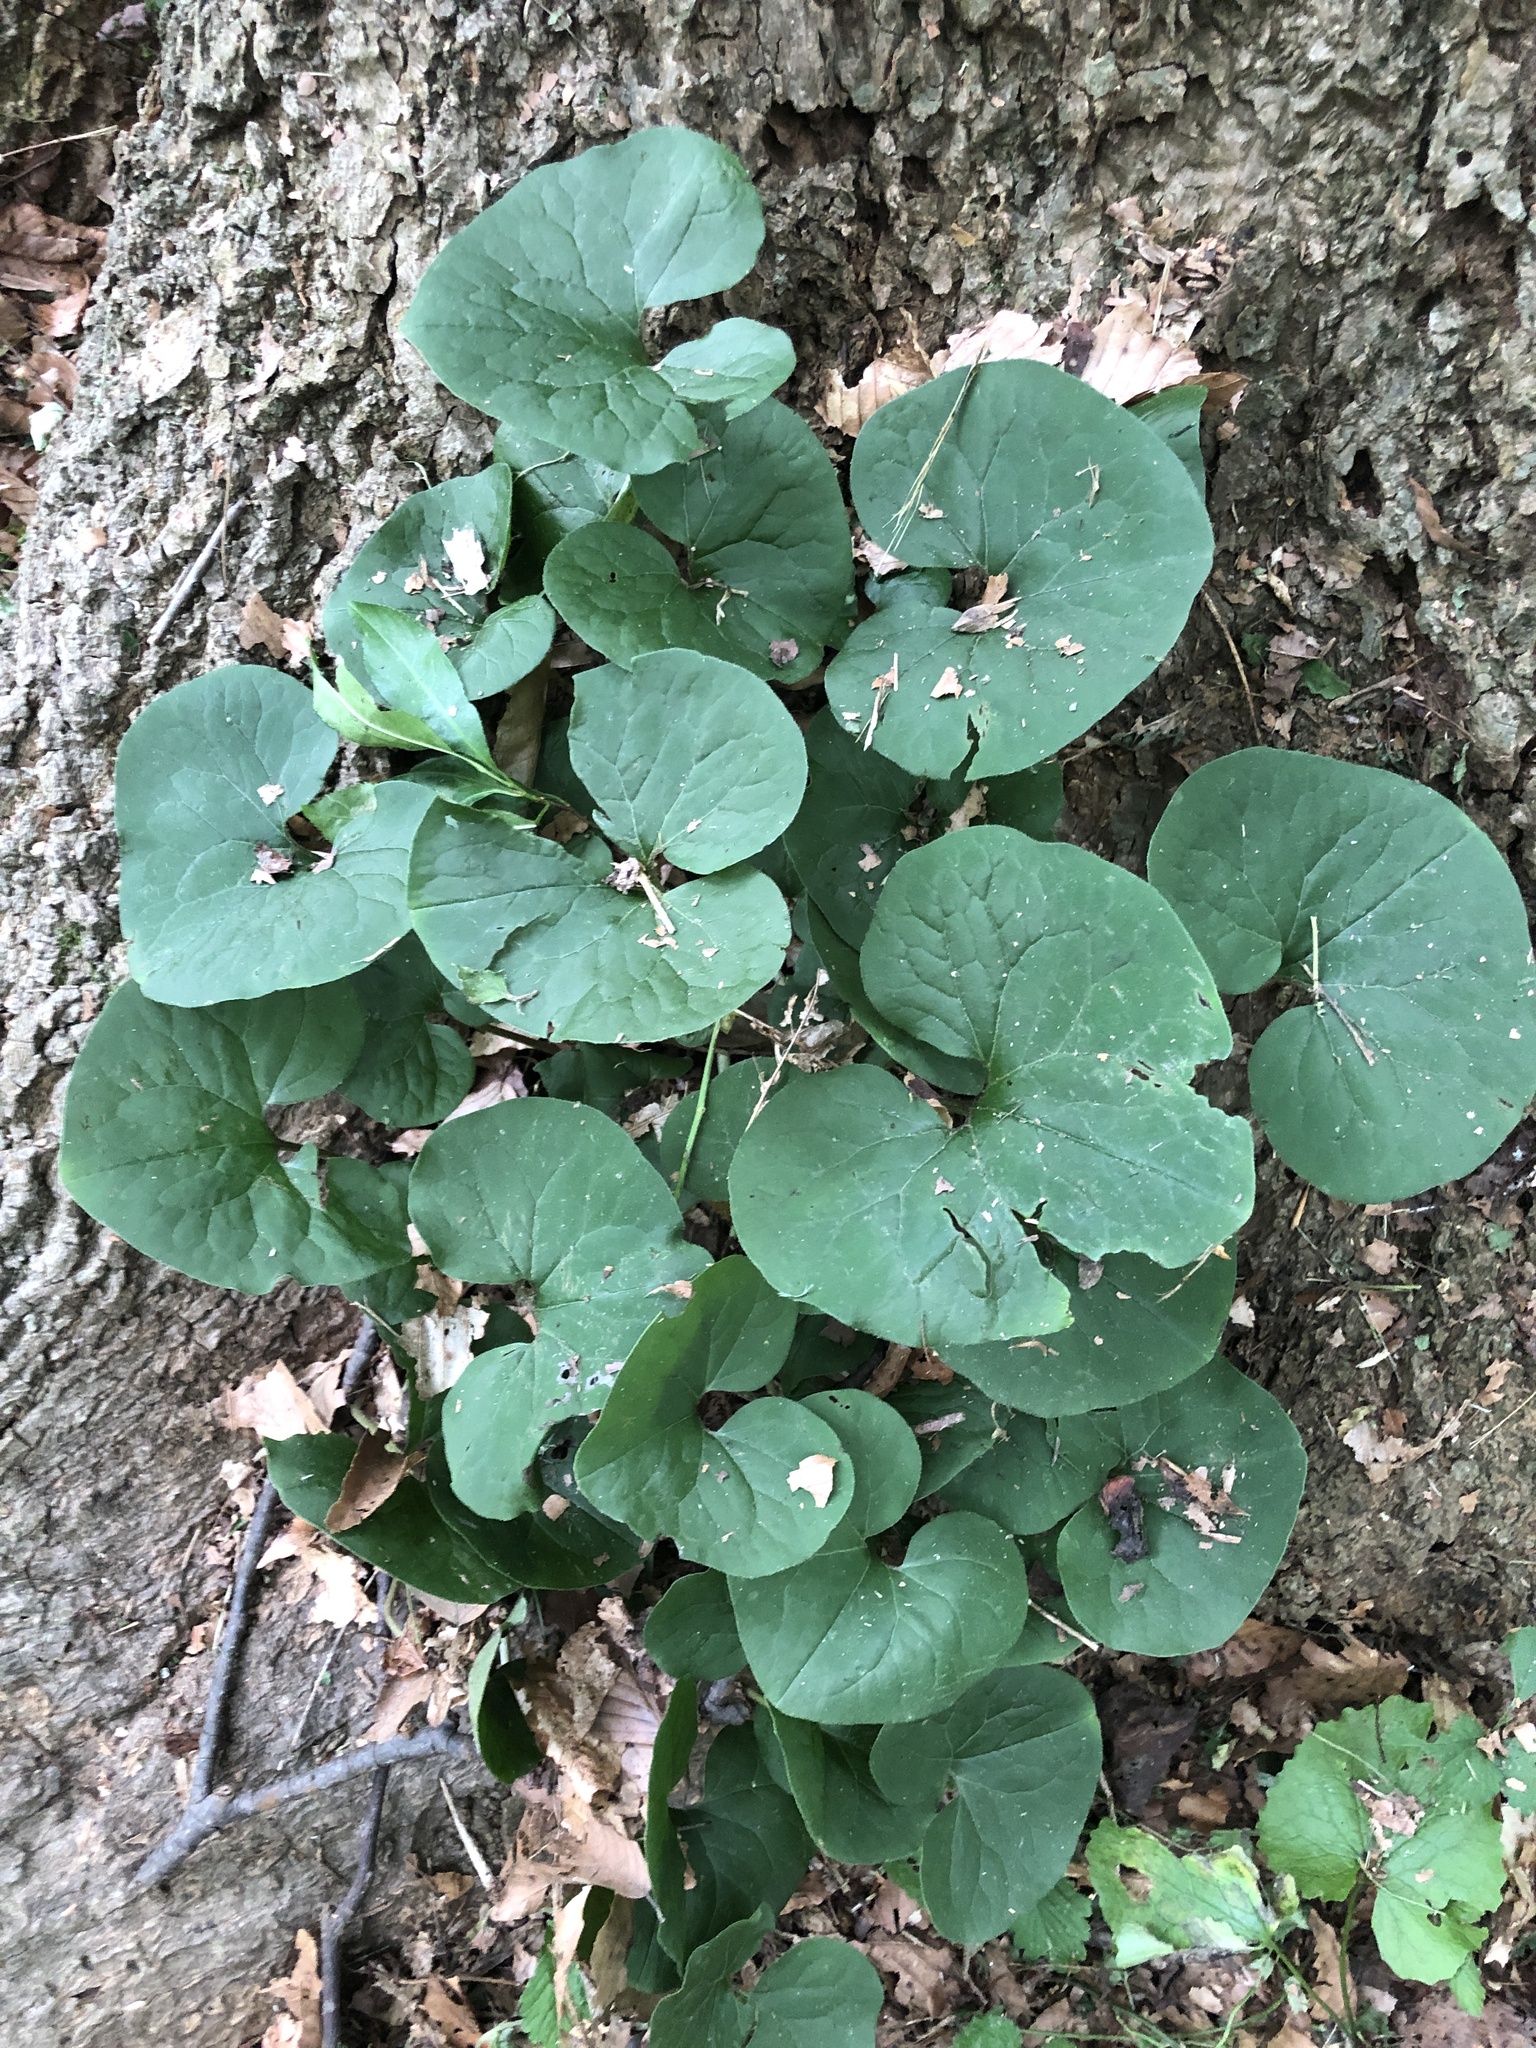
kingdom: Plantae
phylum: Tracheophyta
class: Magnoliopsida
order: Piperales
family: Aristolochiaceae
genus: Asarum
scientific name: Asarum canadense
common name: Wild ginger
